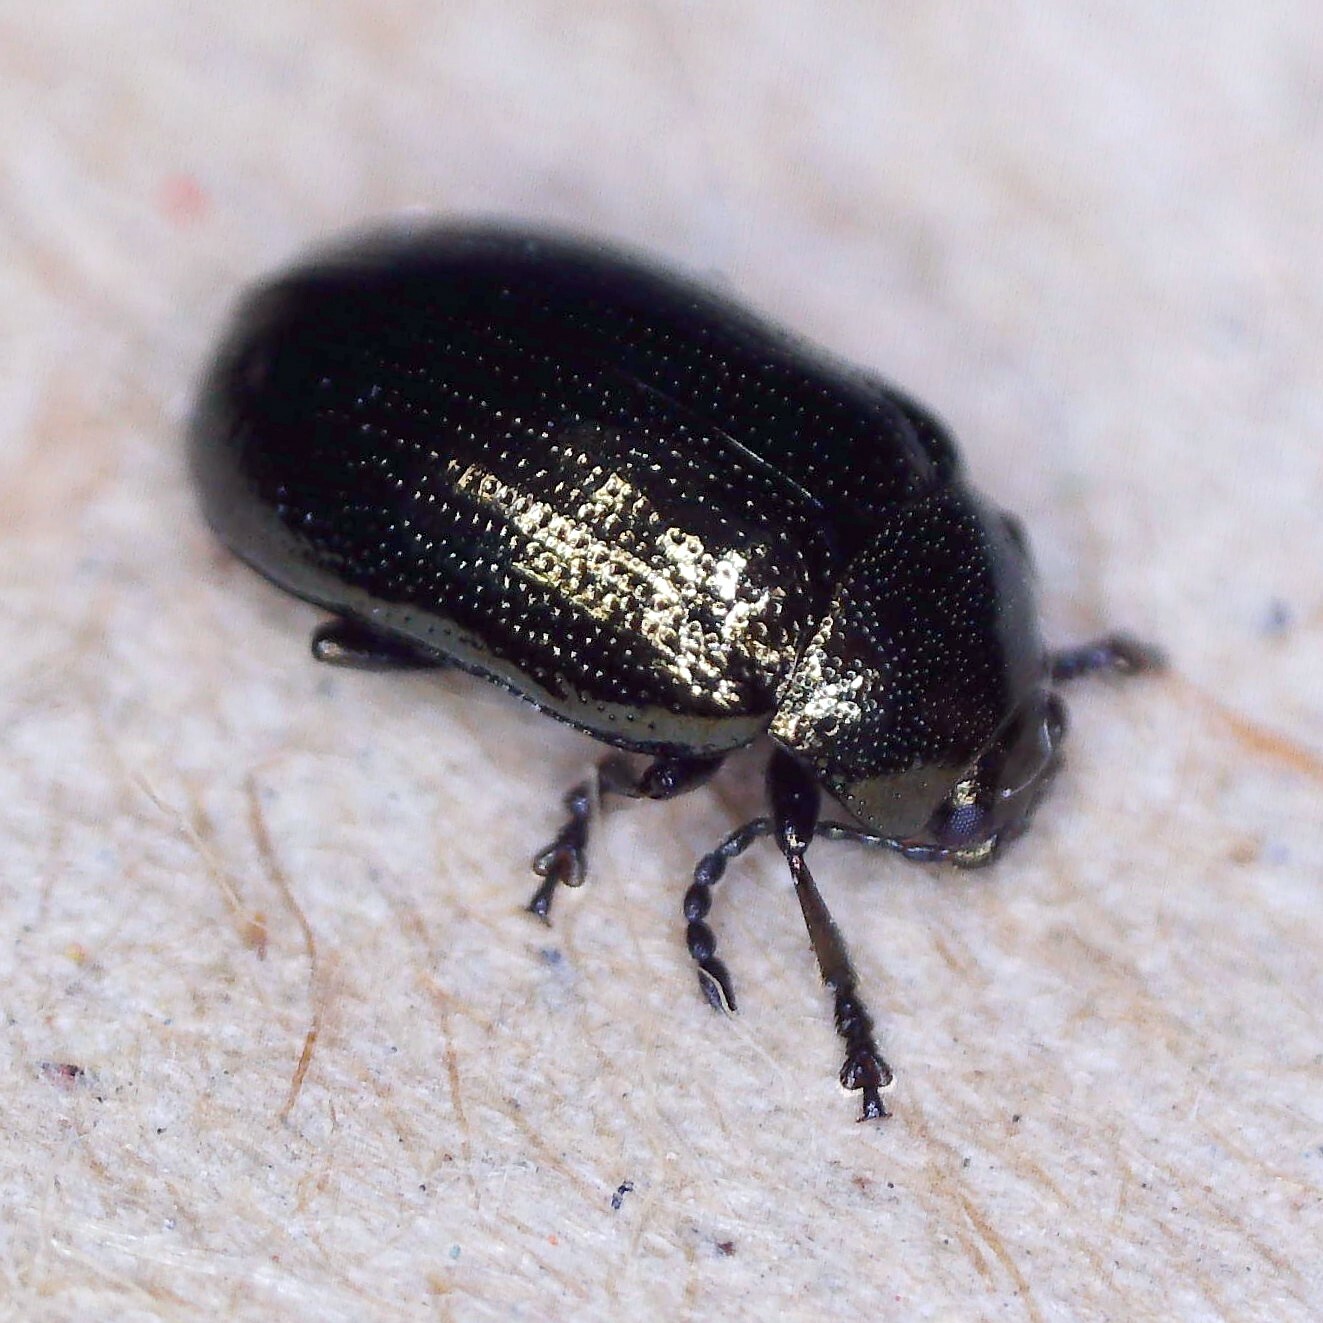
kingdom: Animalia
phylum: Arthropoda
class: Insecta
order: Coleoptera
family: Chrysomelidae
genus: Phratora
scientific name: Phratora laticollis
